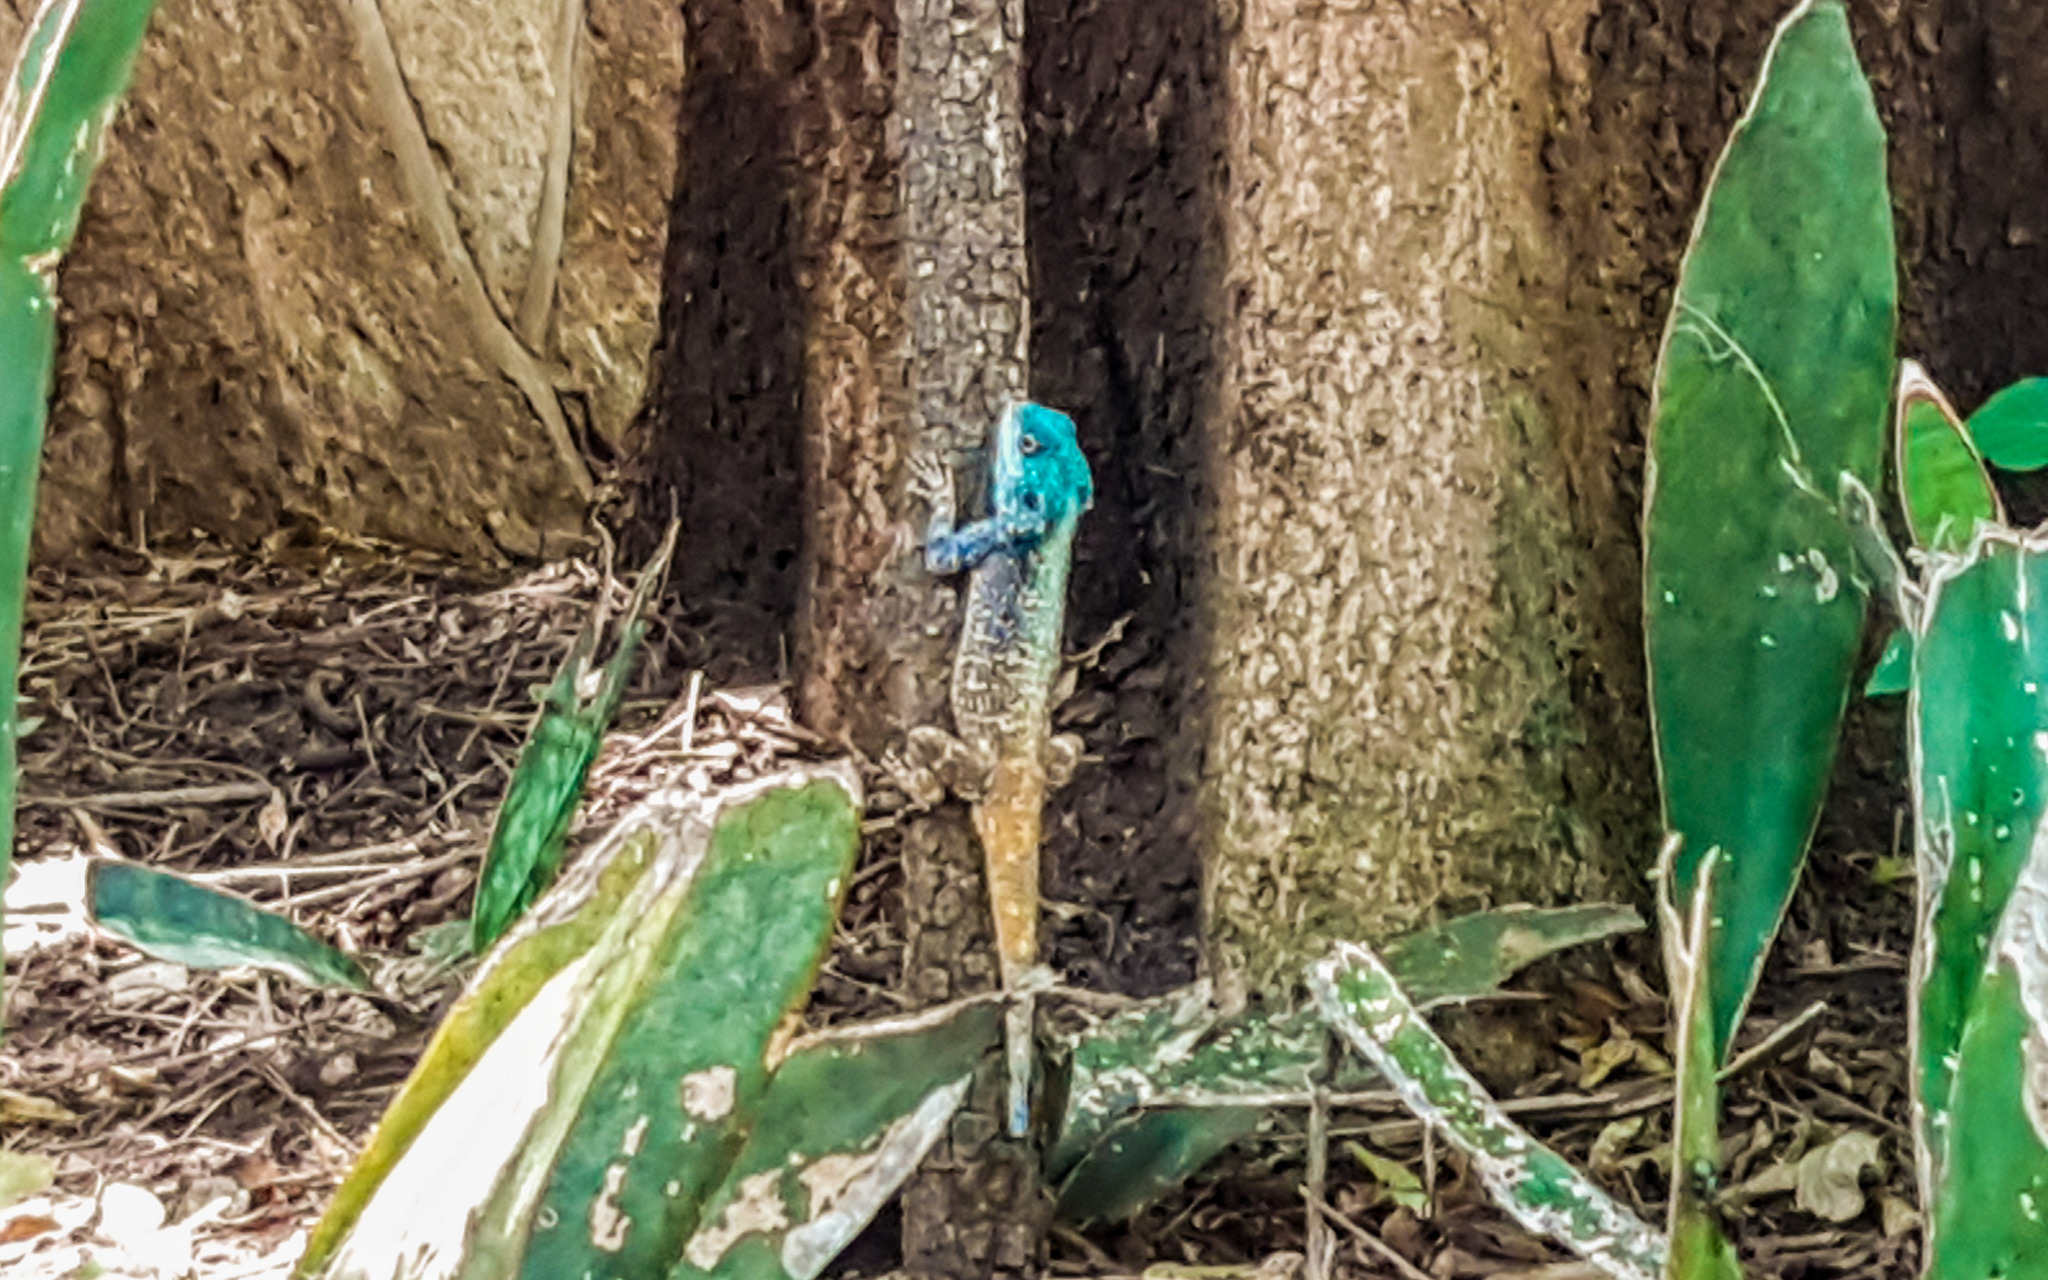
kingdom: Animalia
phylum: Chordata
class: Squamata
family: Agamidae
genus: Acanthocercus
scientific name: Acanthocercus atricollis
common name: Southern tree agama
